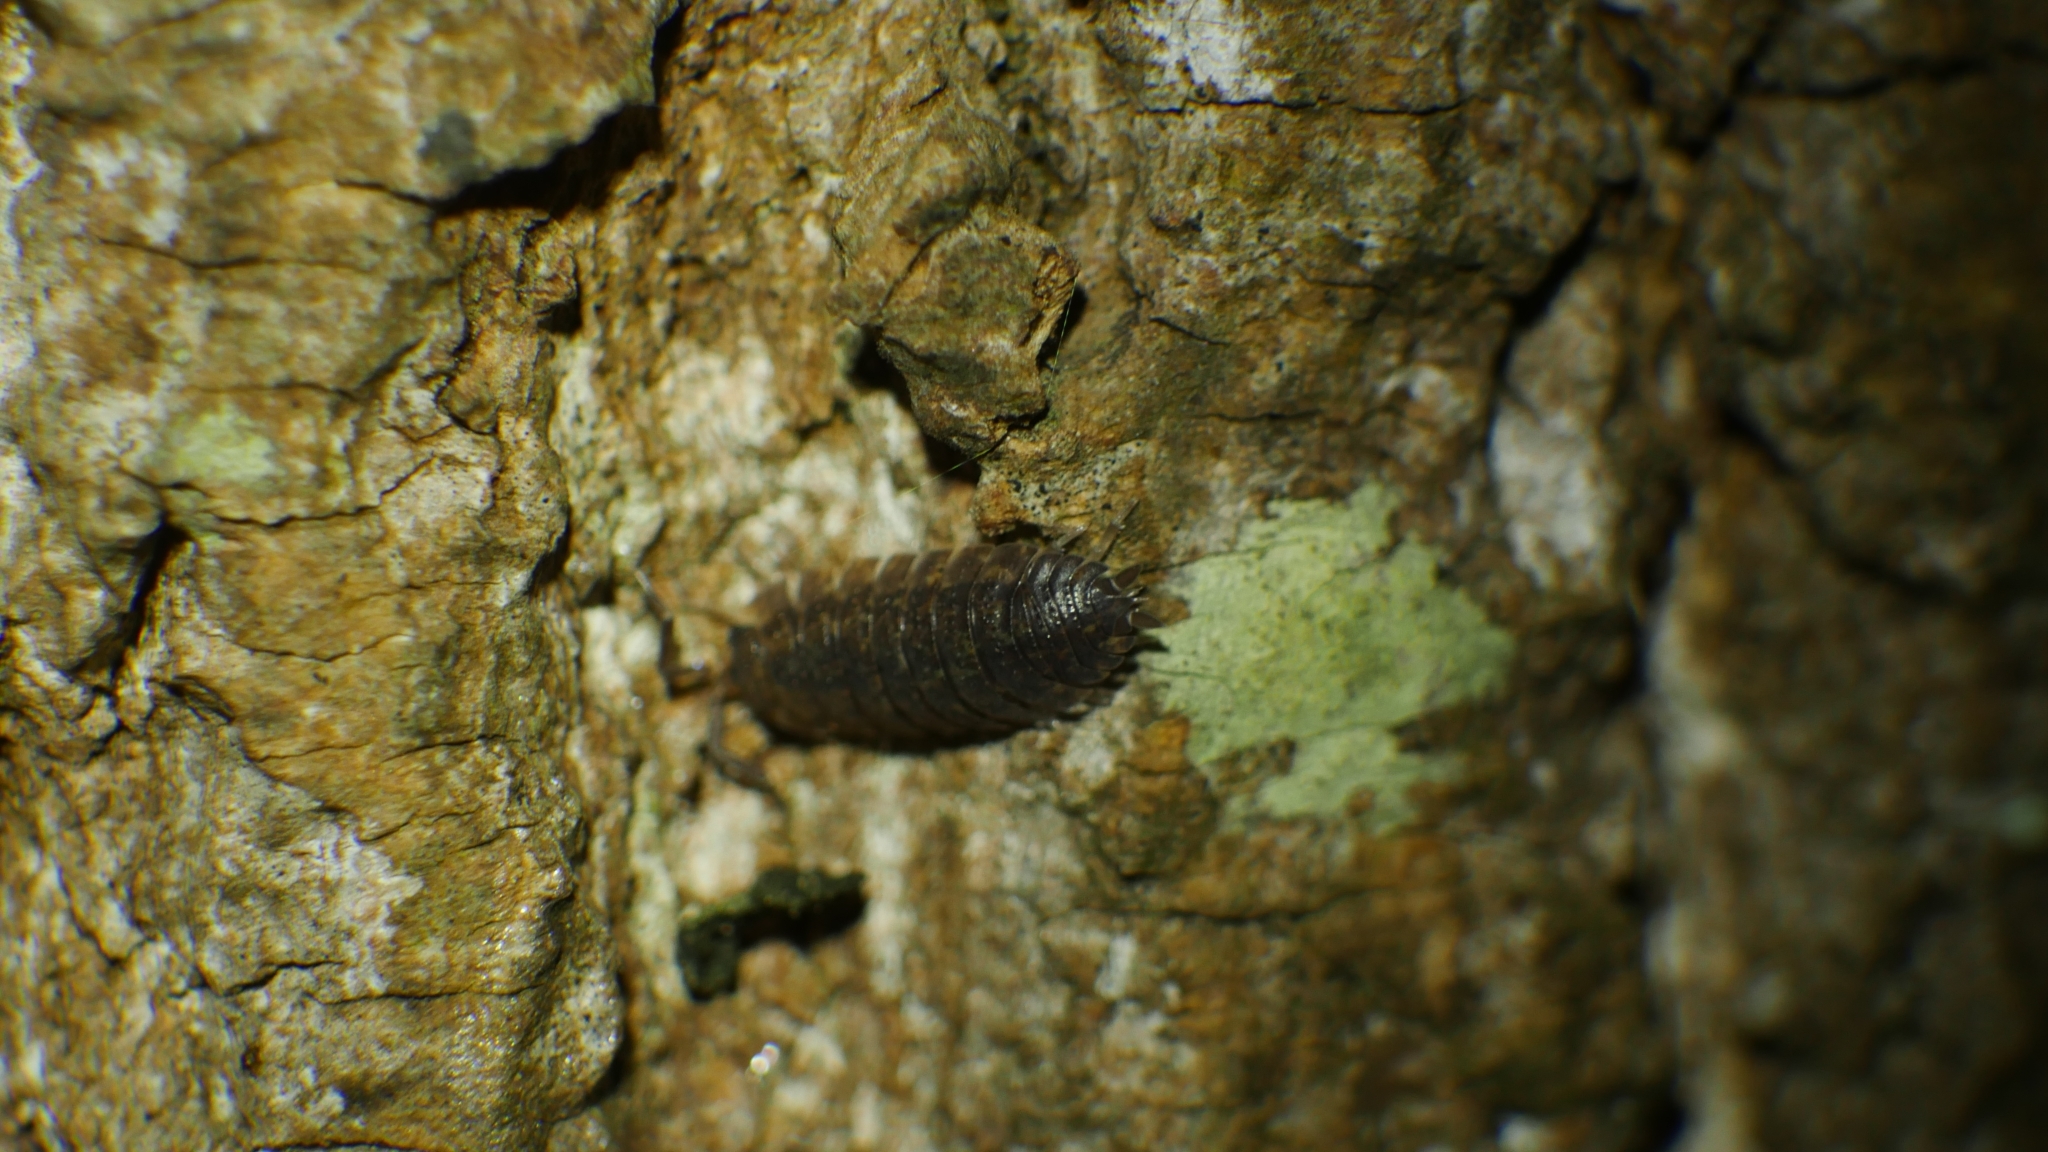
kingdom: Animalia
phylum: Arthropoda
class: Malacostraca
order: Isopoda
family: Porcellionidae
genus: Porcellio
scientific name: Porcellio scaber
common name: Common rough woodlouse
